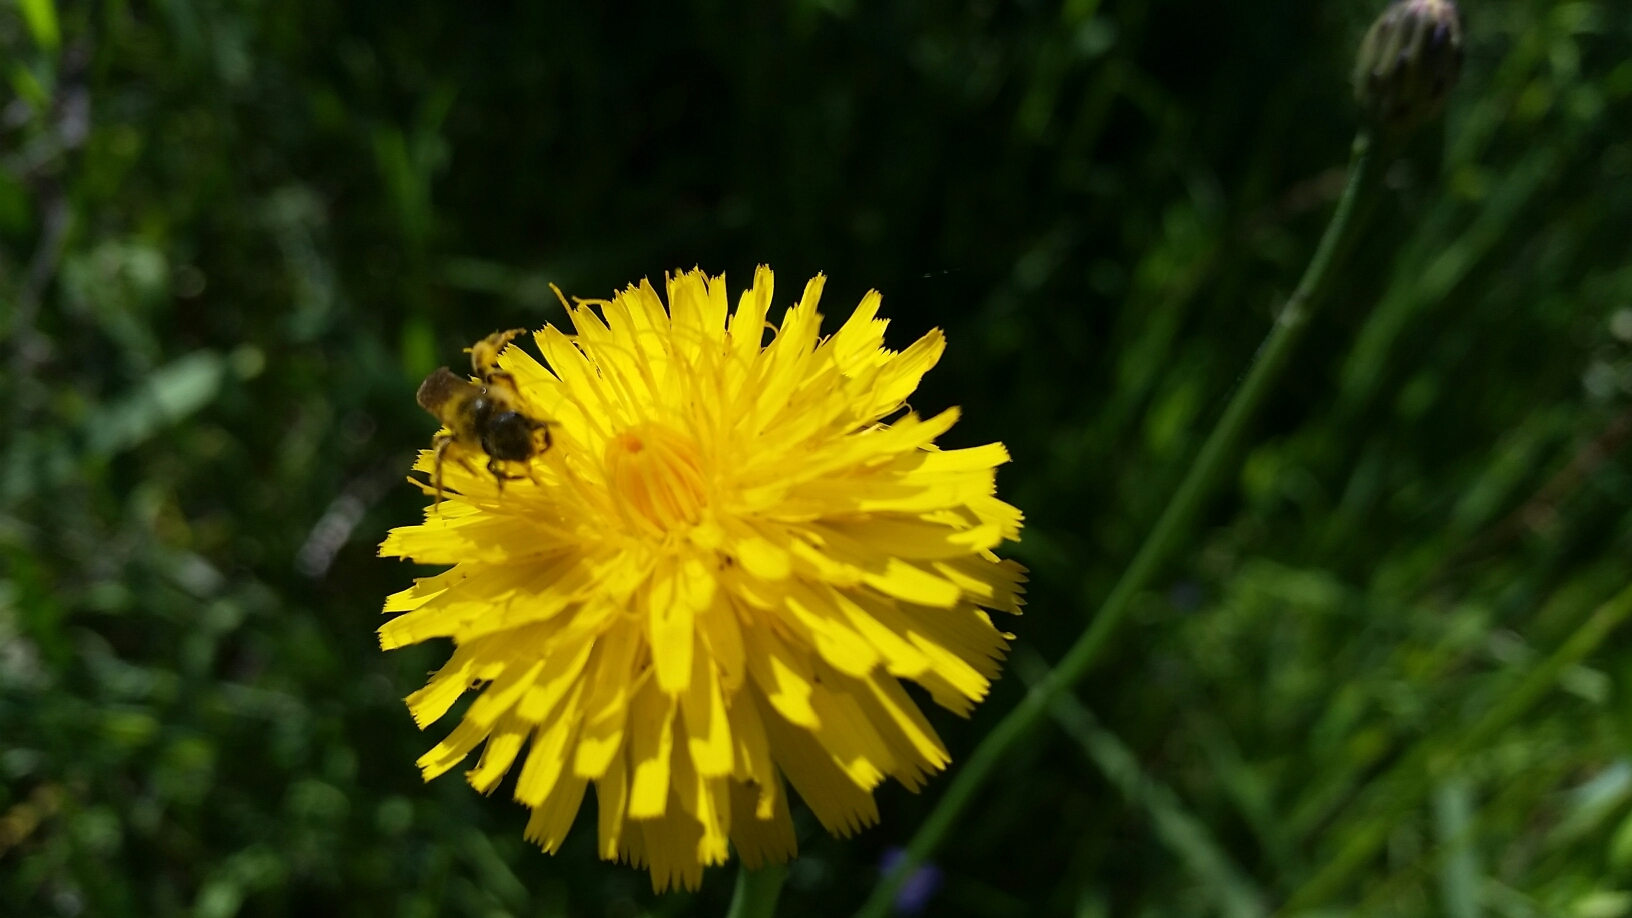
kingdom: Plantae
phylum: Tracheophyta
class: Magnoliopsida
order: Asterales
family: Asteraceae
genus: Hypochaeris
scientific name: Hypochaeris radicata
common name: Flatweed
